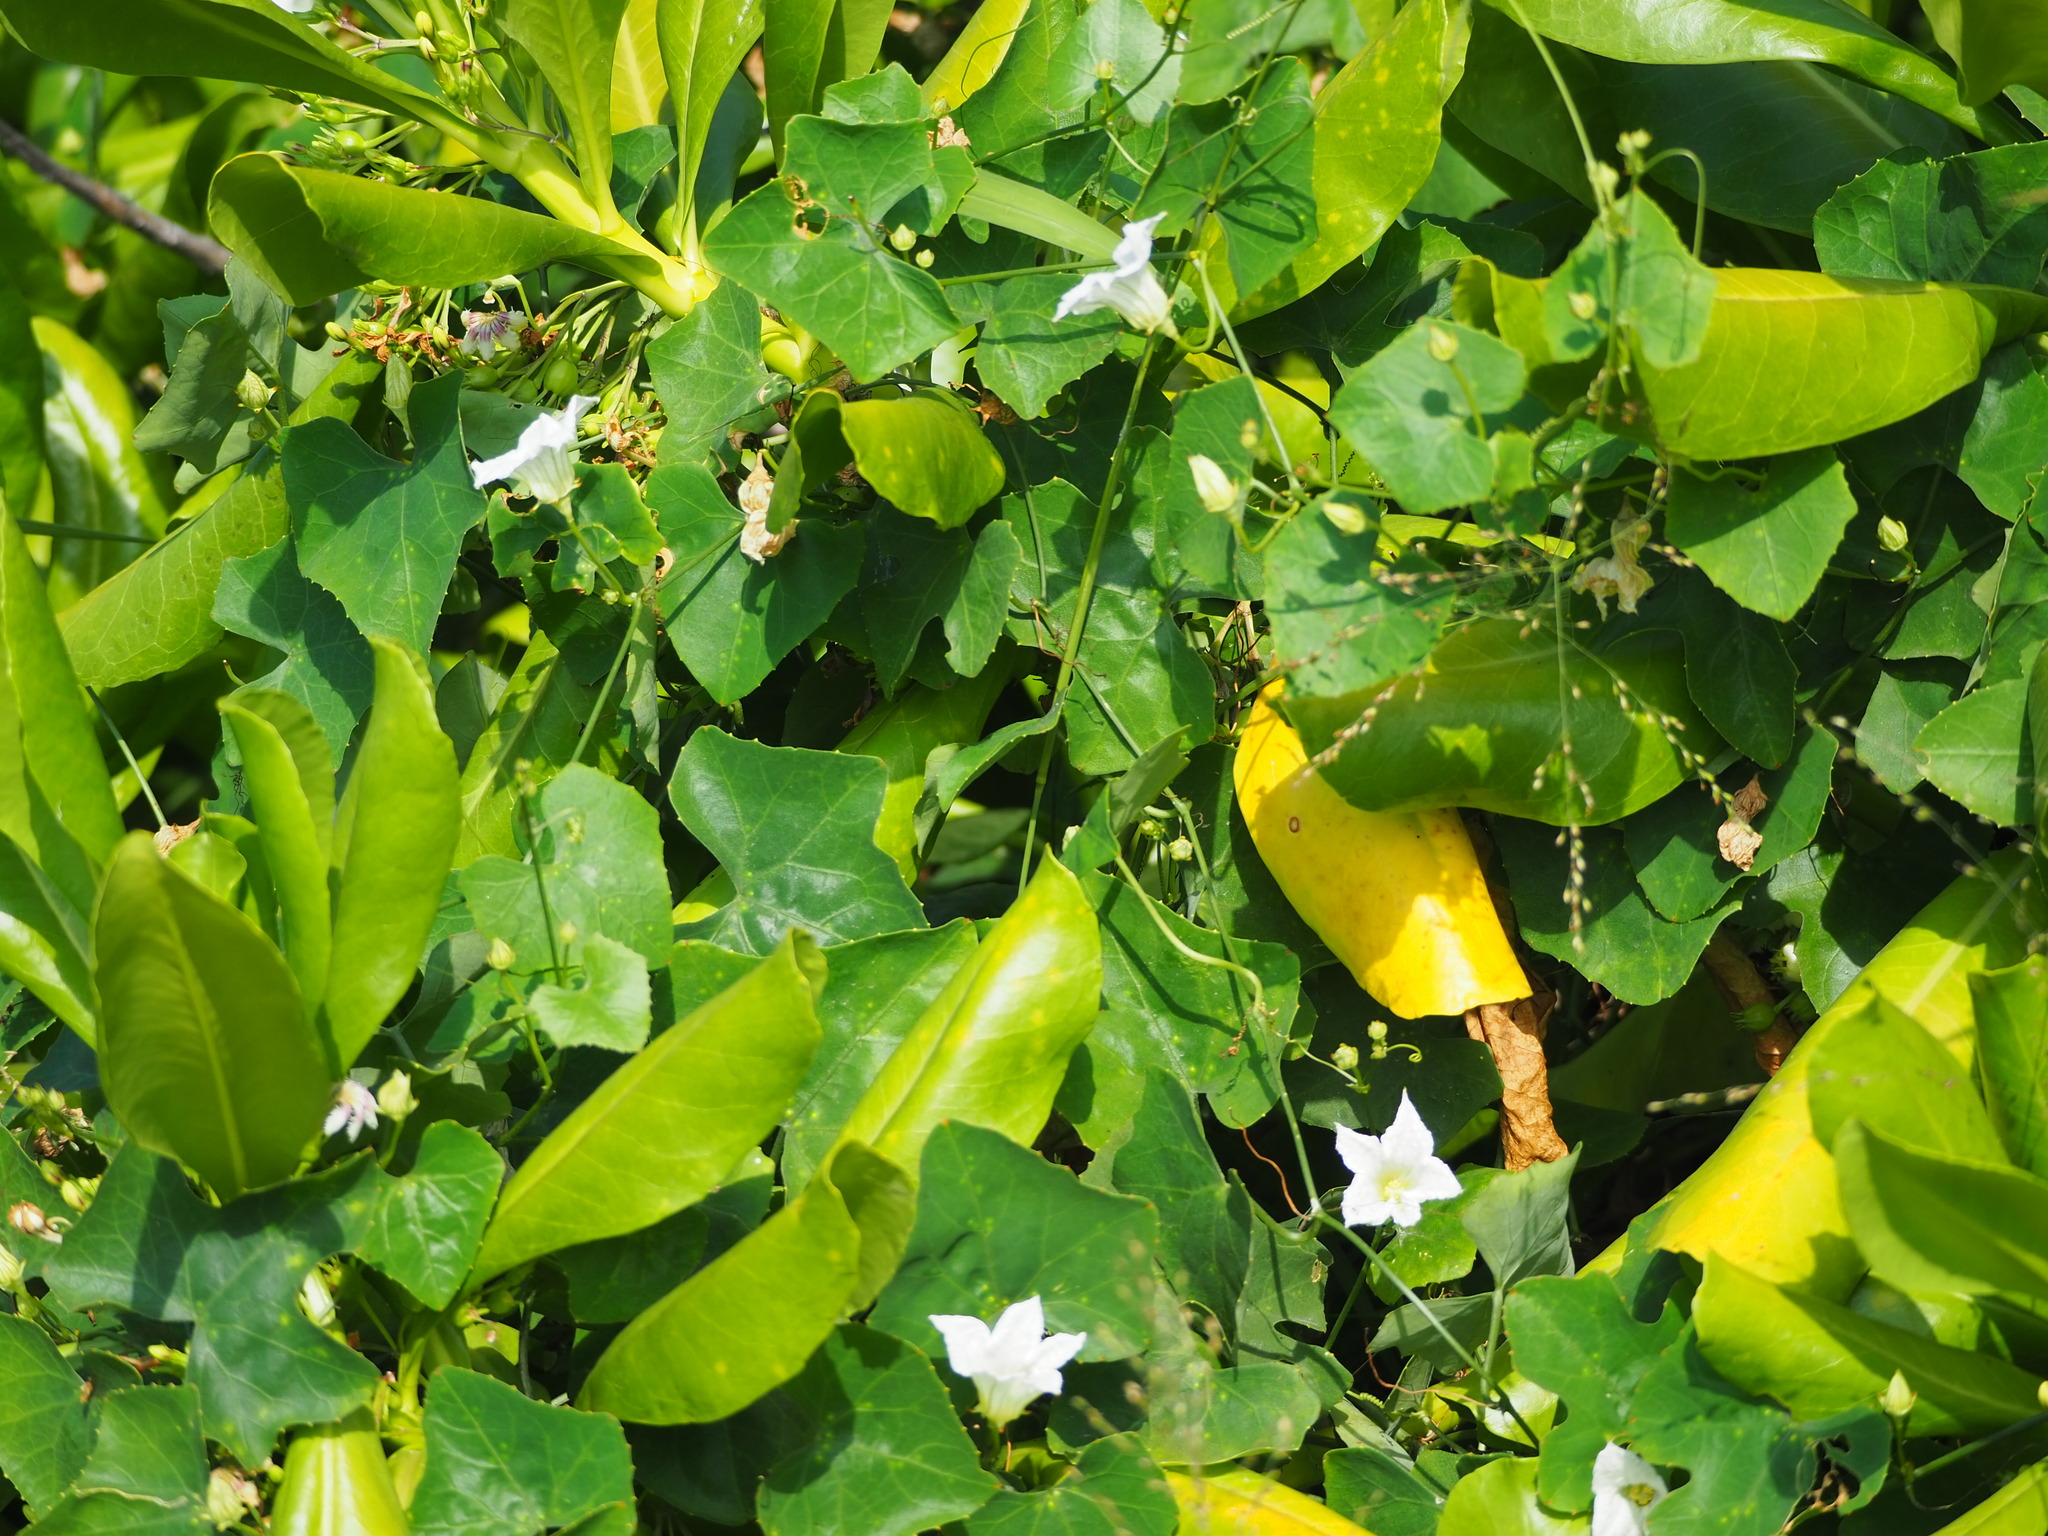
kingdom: Plantae
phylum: Tracheophyta
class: Magnoliopsida
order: Cucurbitales
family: Cucurbitaceae
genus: Coccinia
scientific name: Coccinia grandis
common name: Ivy gourd
